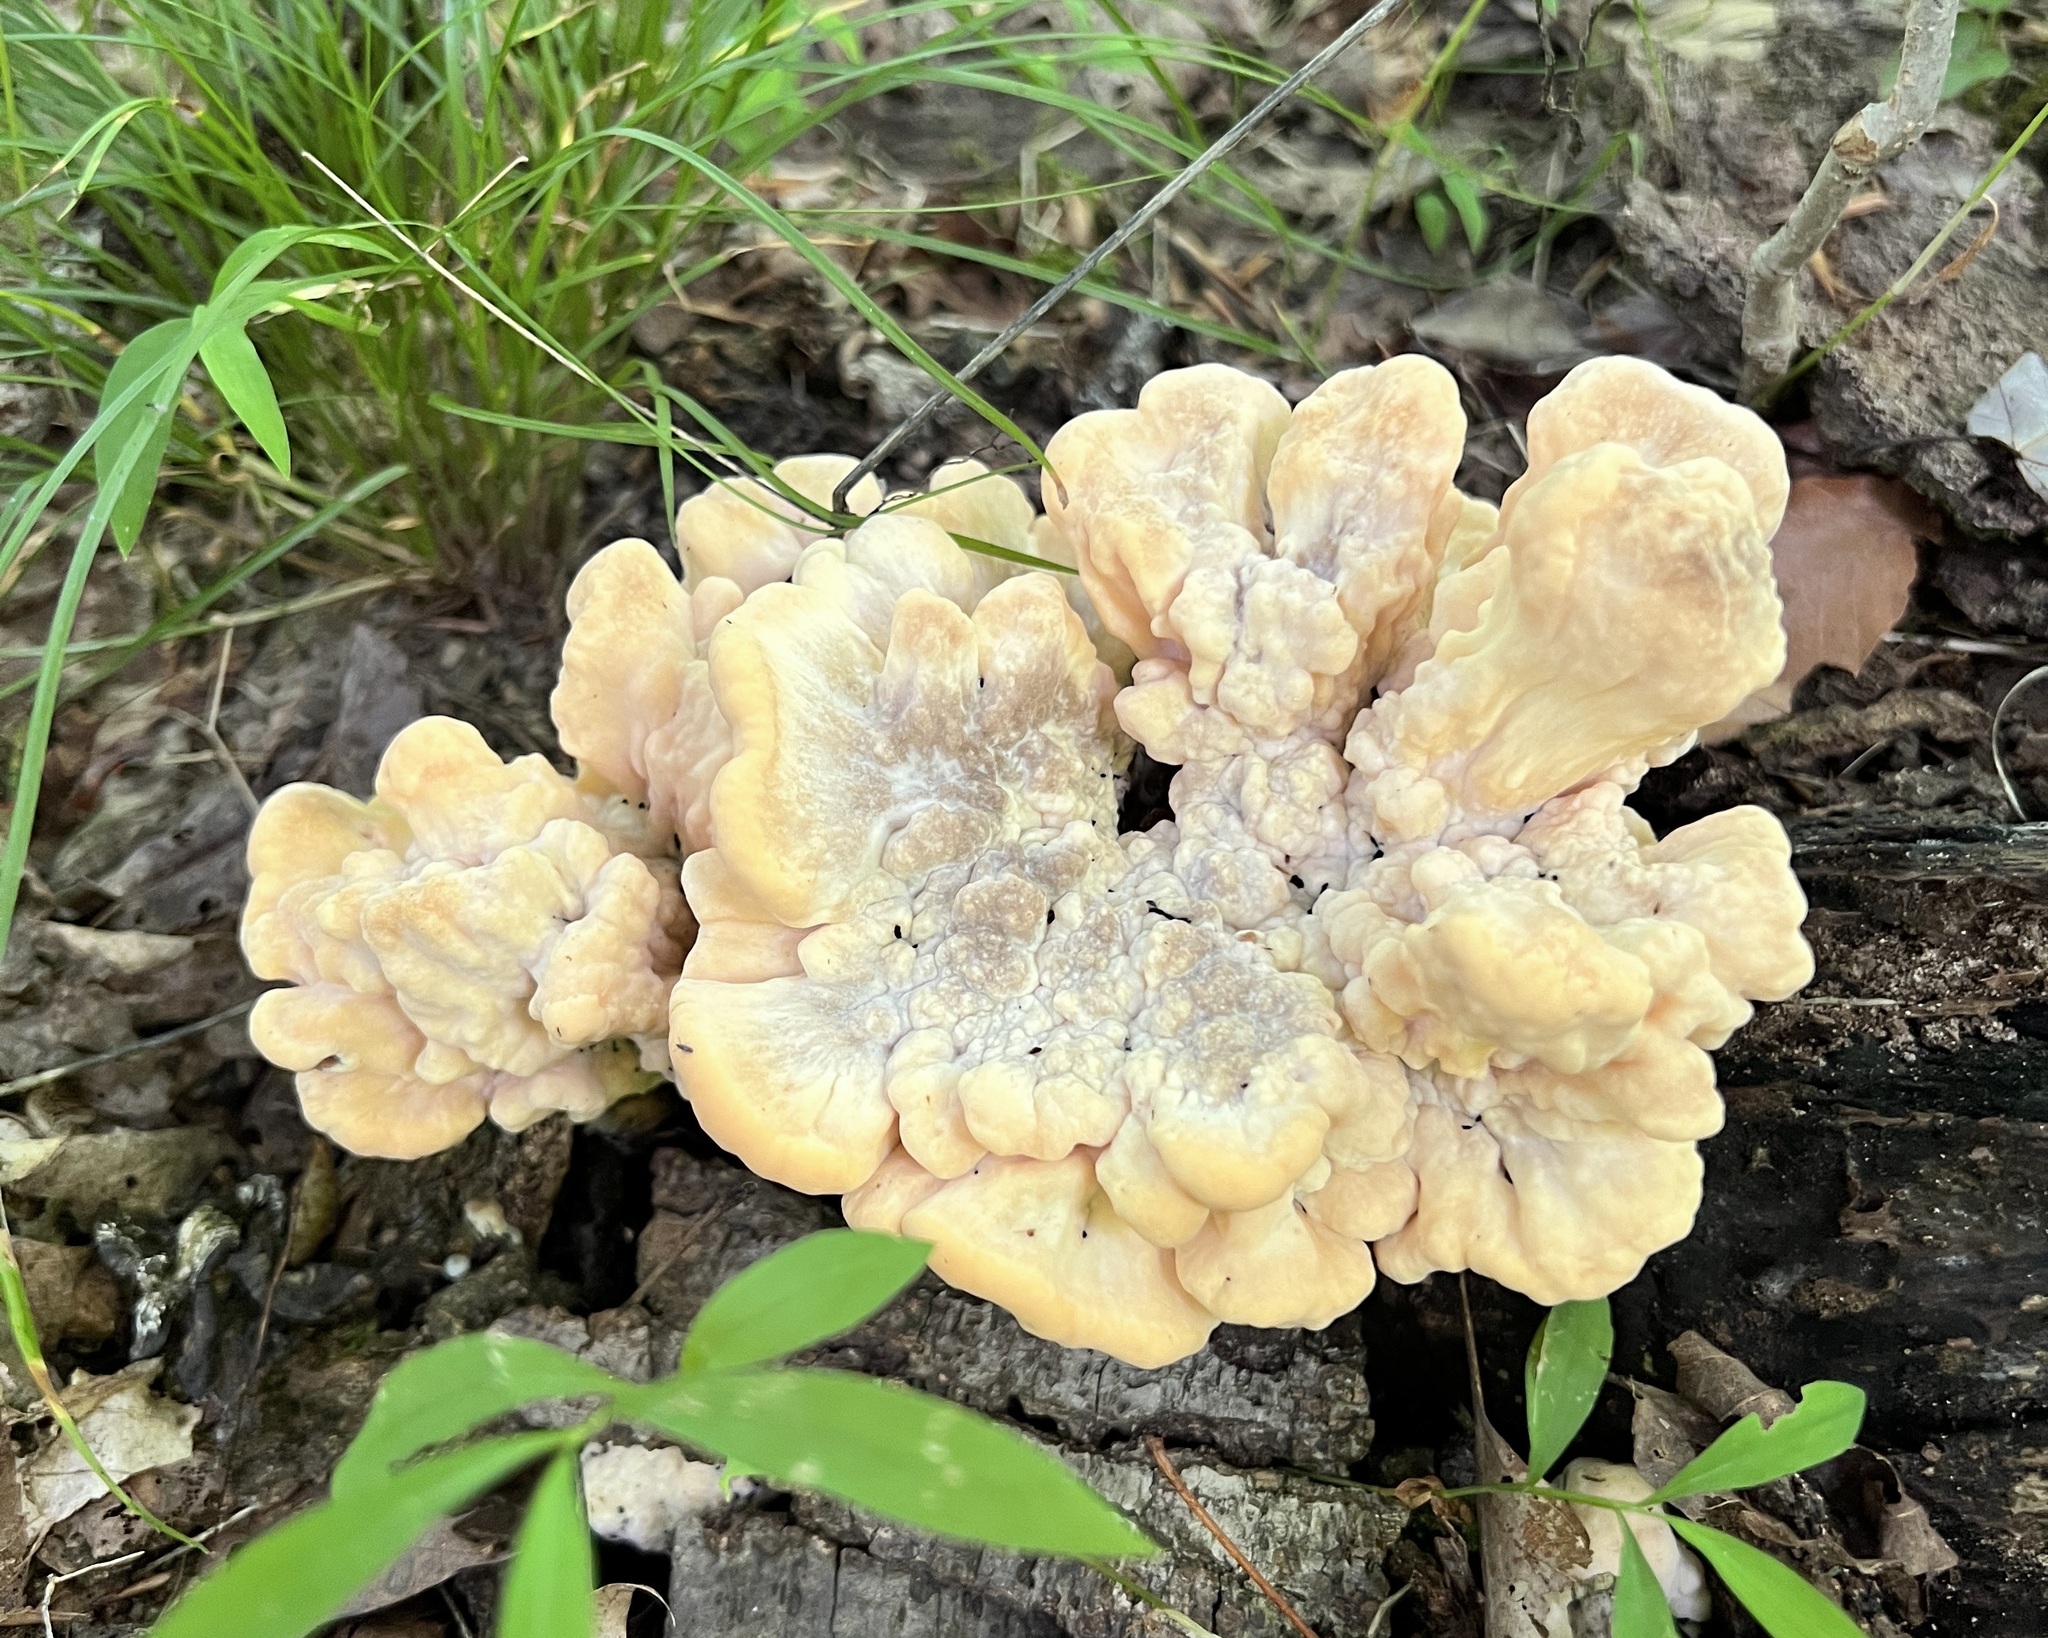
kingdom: Fungi
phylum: Basidiomycota
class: Agaricomycetes
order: Polyporales
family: Meripilaceae
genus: Meripilus
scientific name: Meripilus sumstinei
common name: Black-staining polypore
